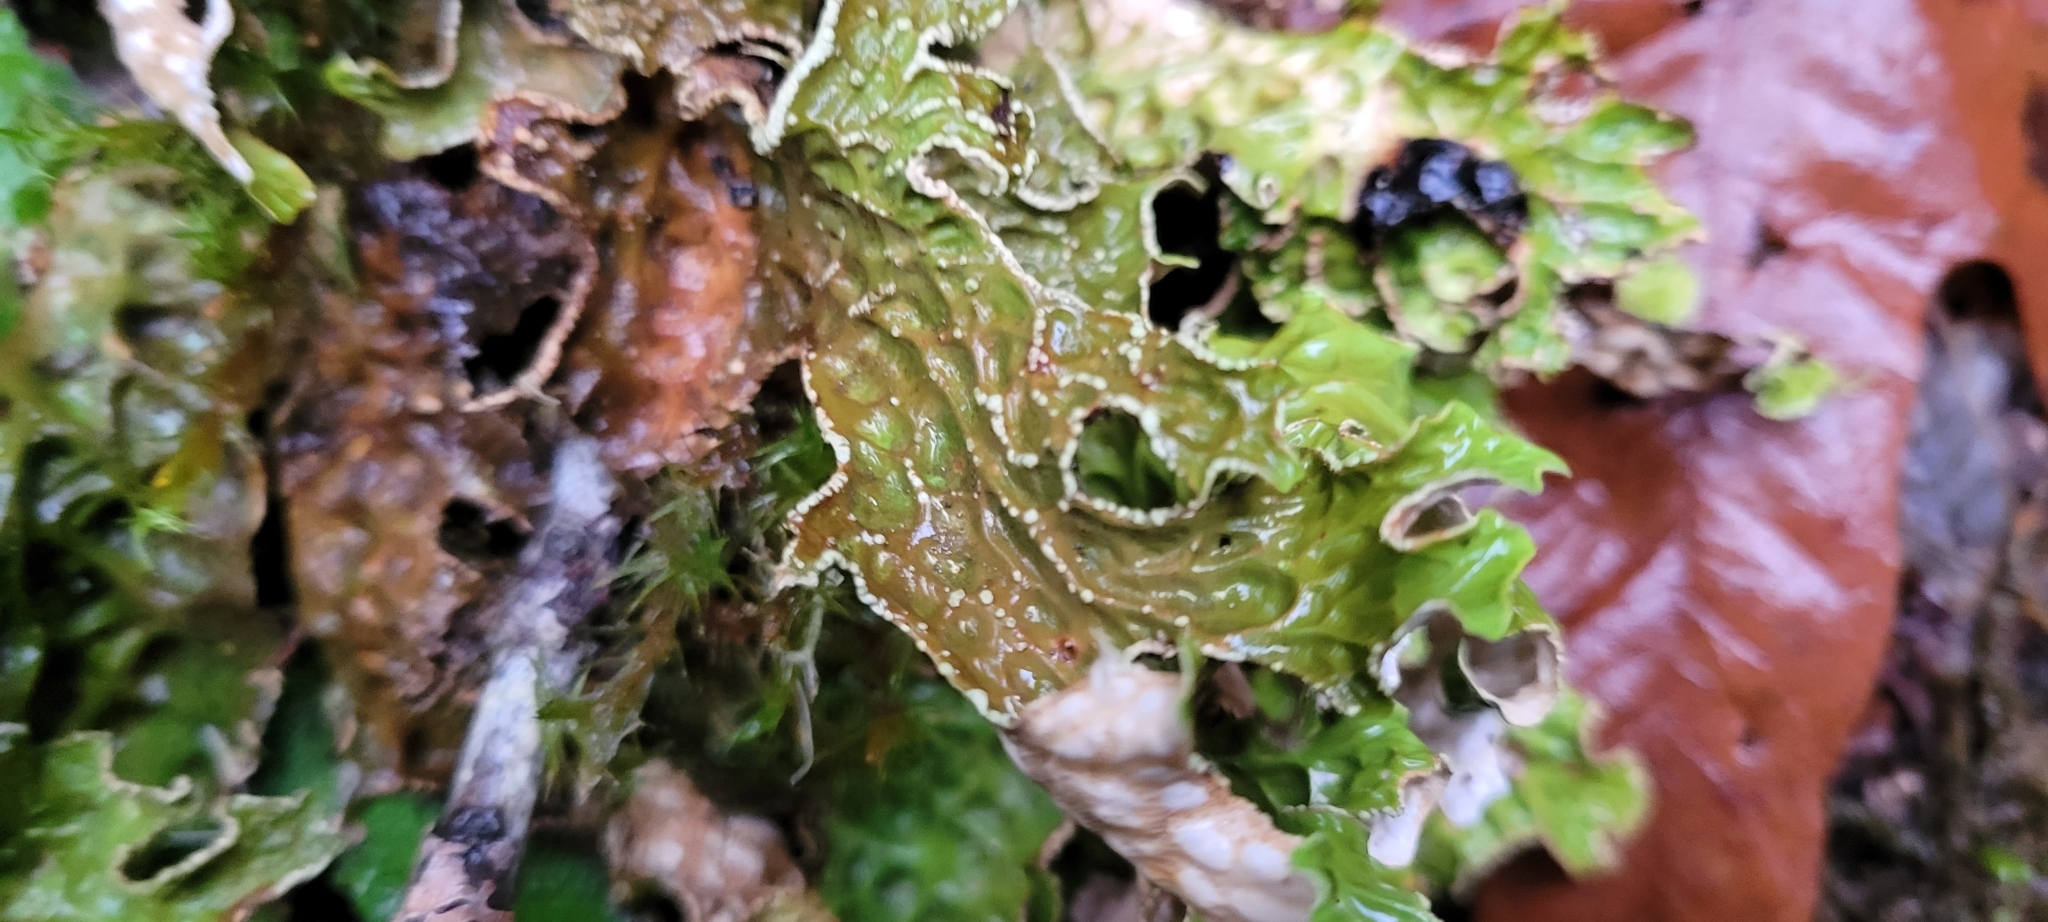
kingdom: Fungi
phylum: Ascomycota
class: Lecanoromycetes
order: Peltigerales
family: Lobariaceae
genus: Lobaria
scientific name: Lobaria pulmonaria
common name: Lungwort
